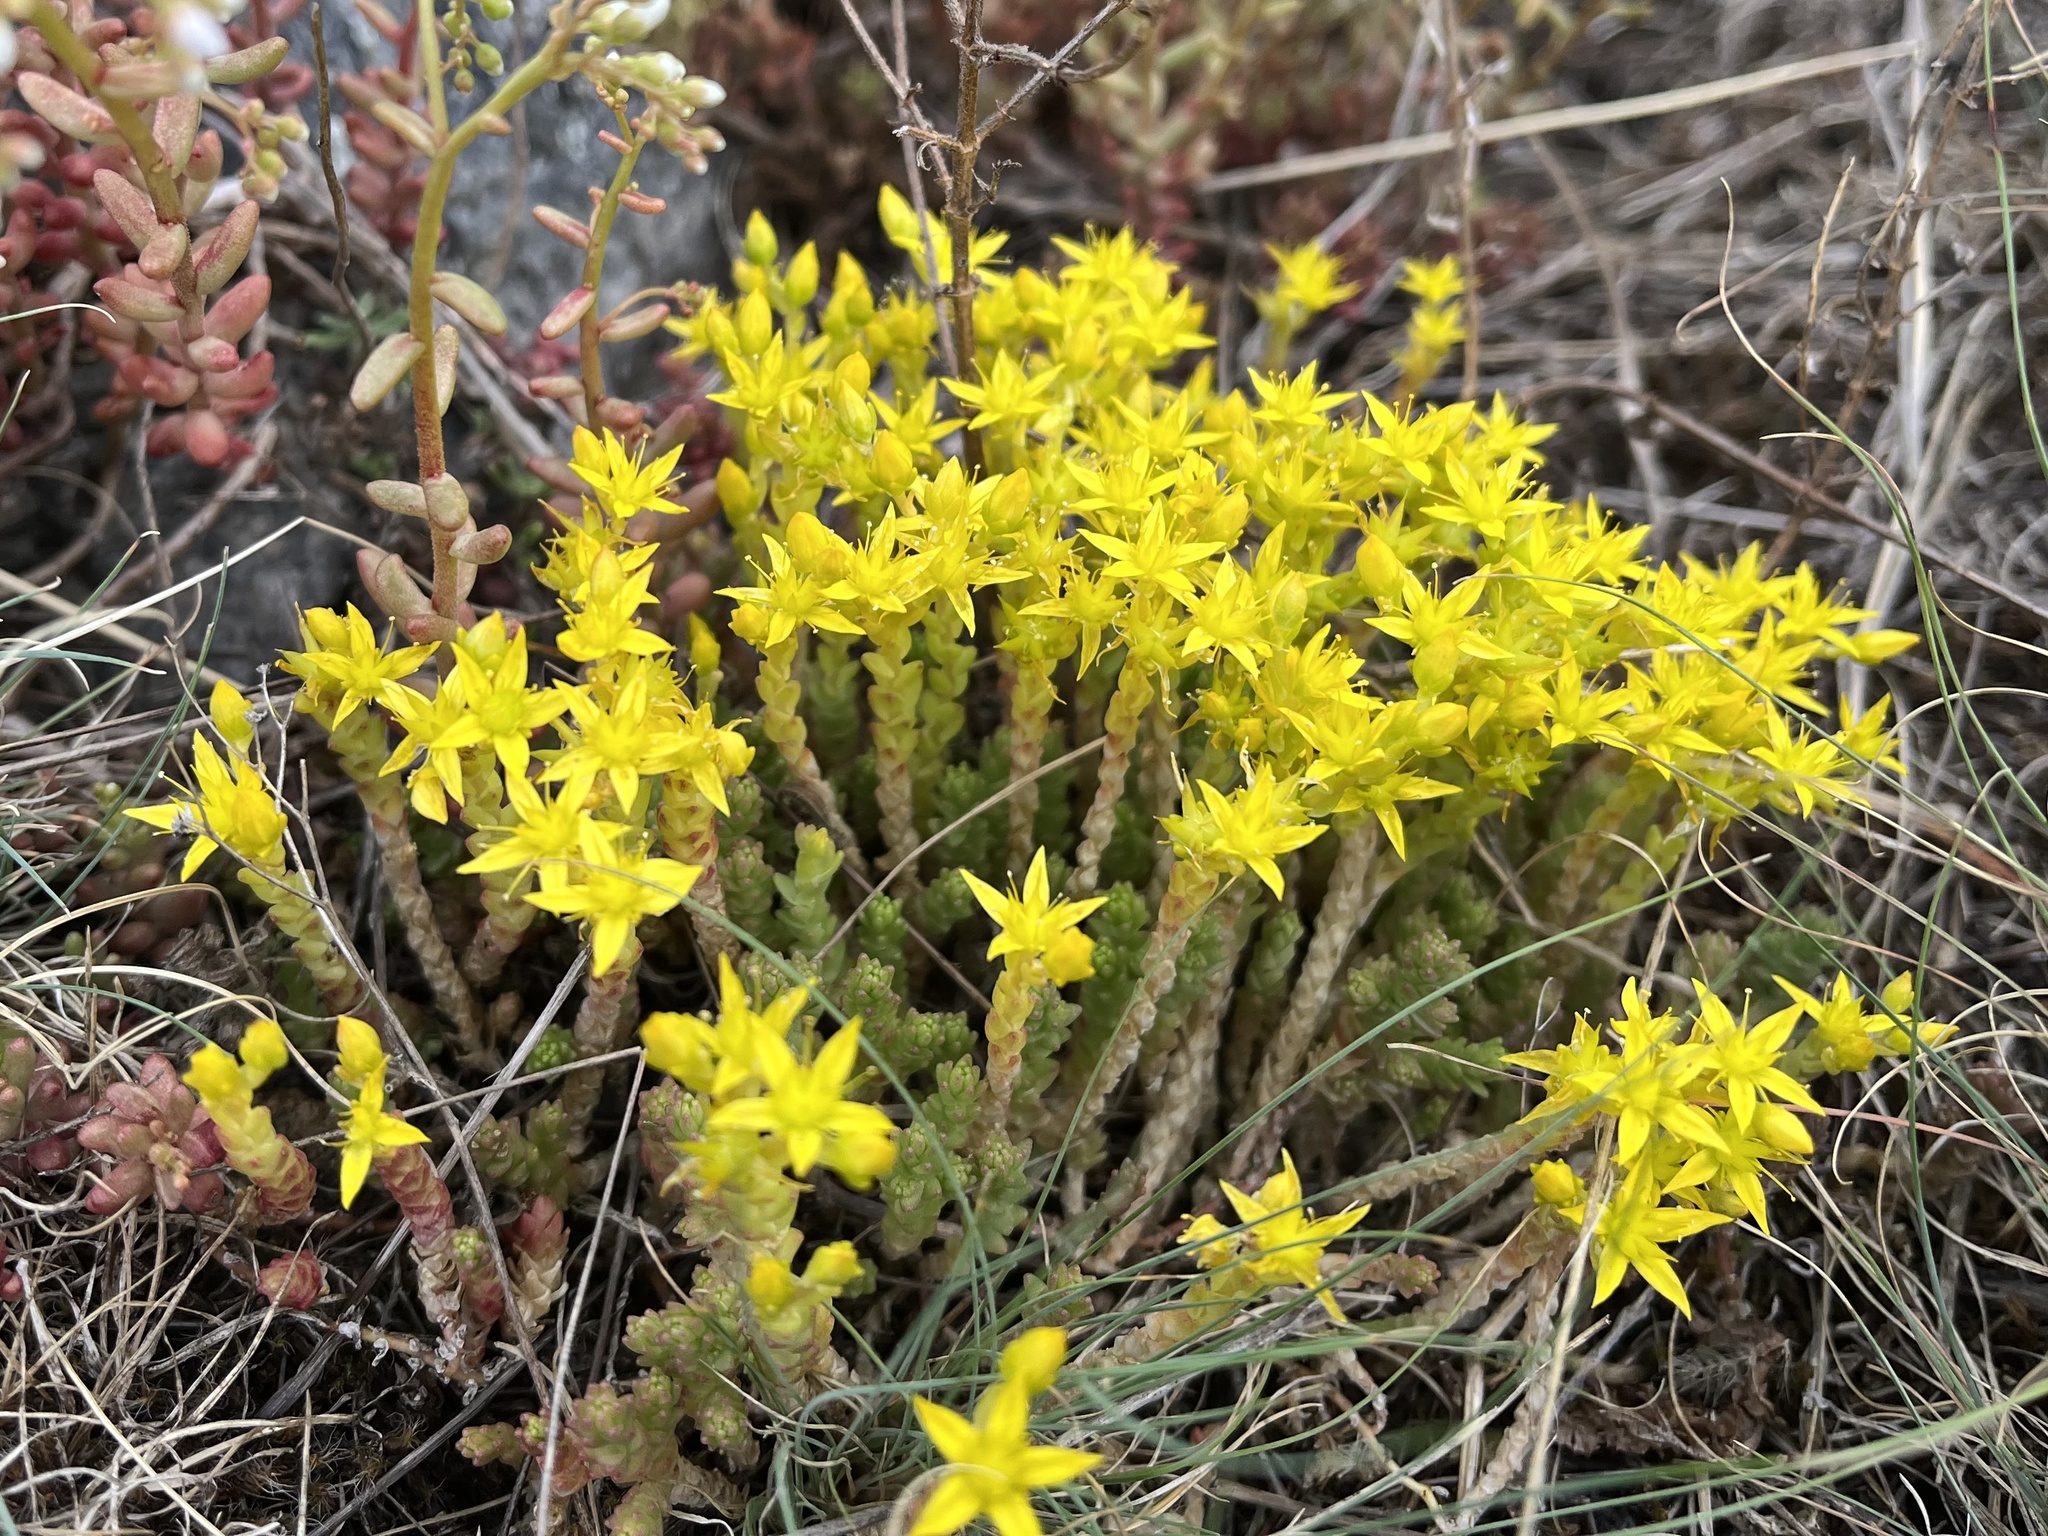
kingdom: Plantae
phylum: Tracheophyta
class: Magnoliopsida
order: Saxifragales
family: Crassulaceae
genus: Sedum
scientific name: Sedum acre
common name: Biting stonecrop
